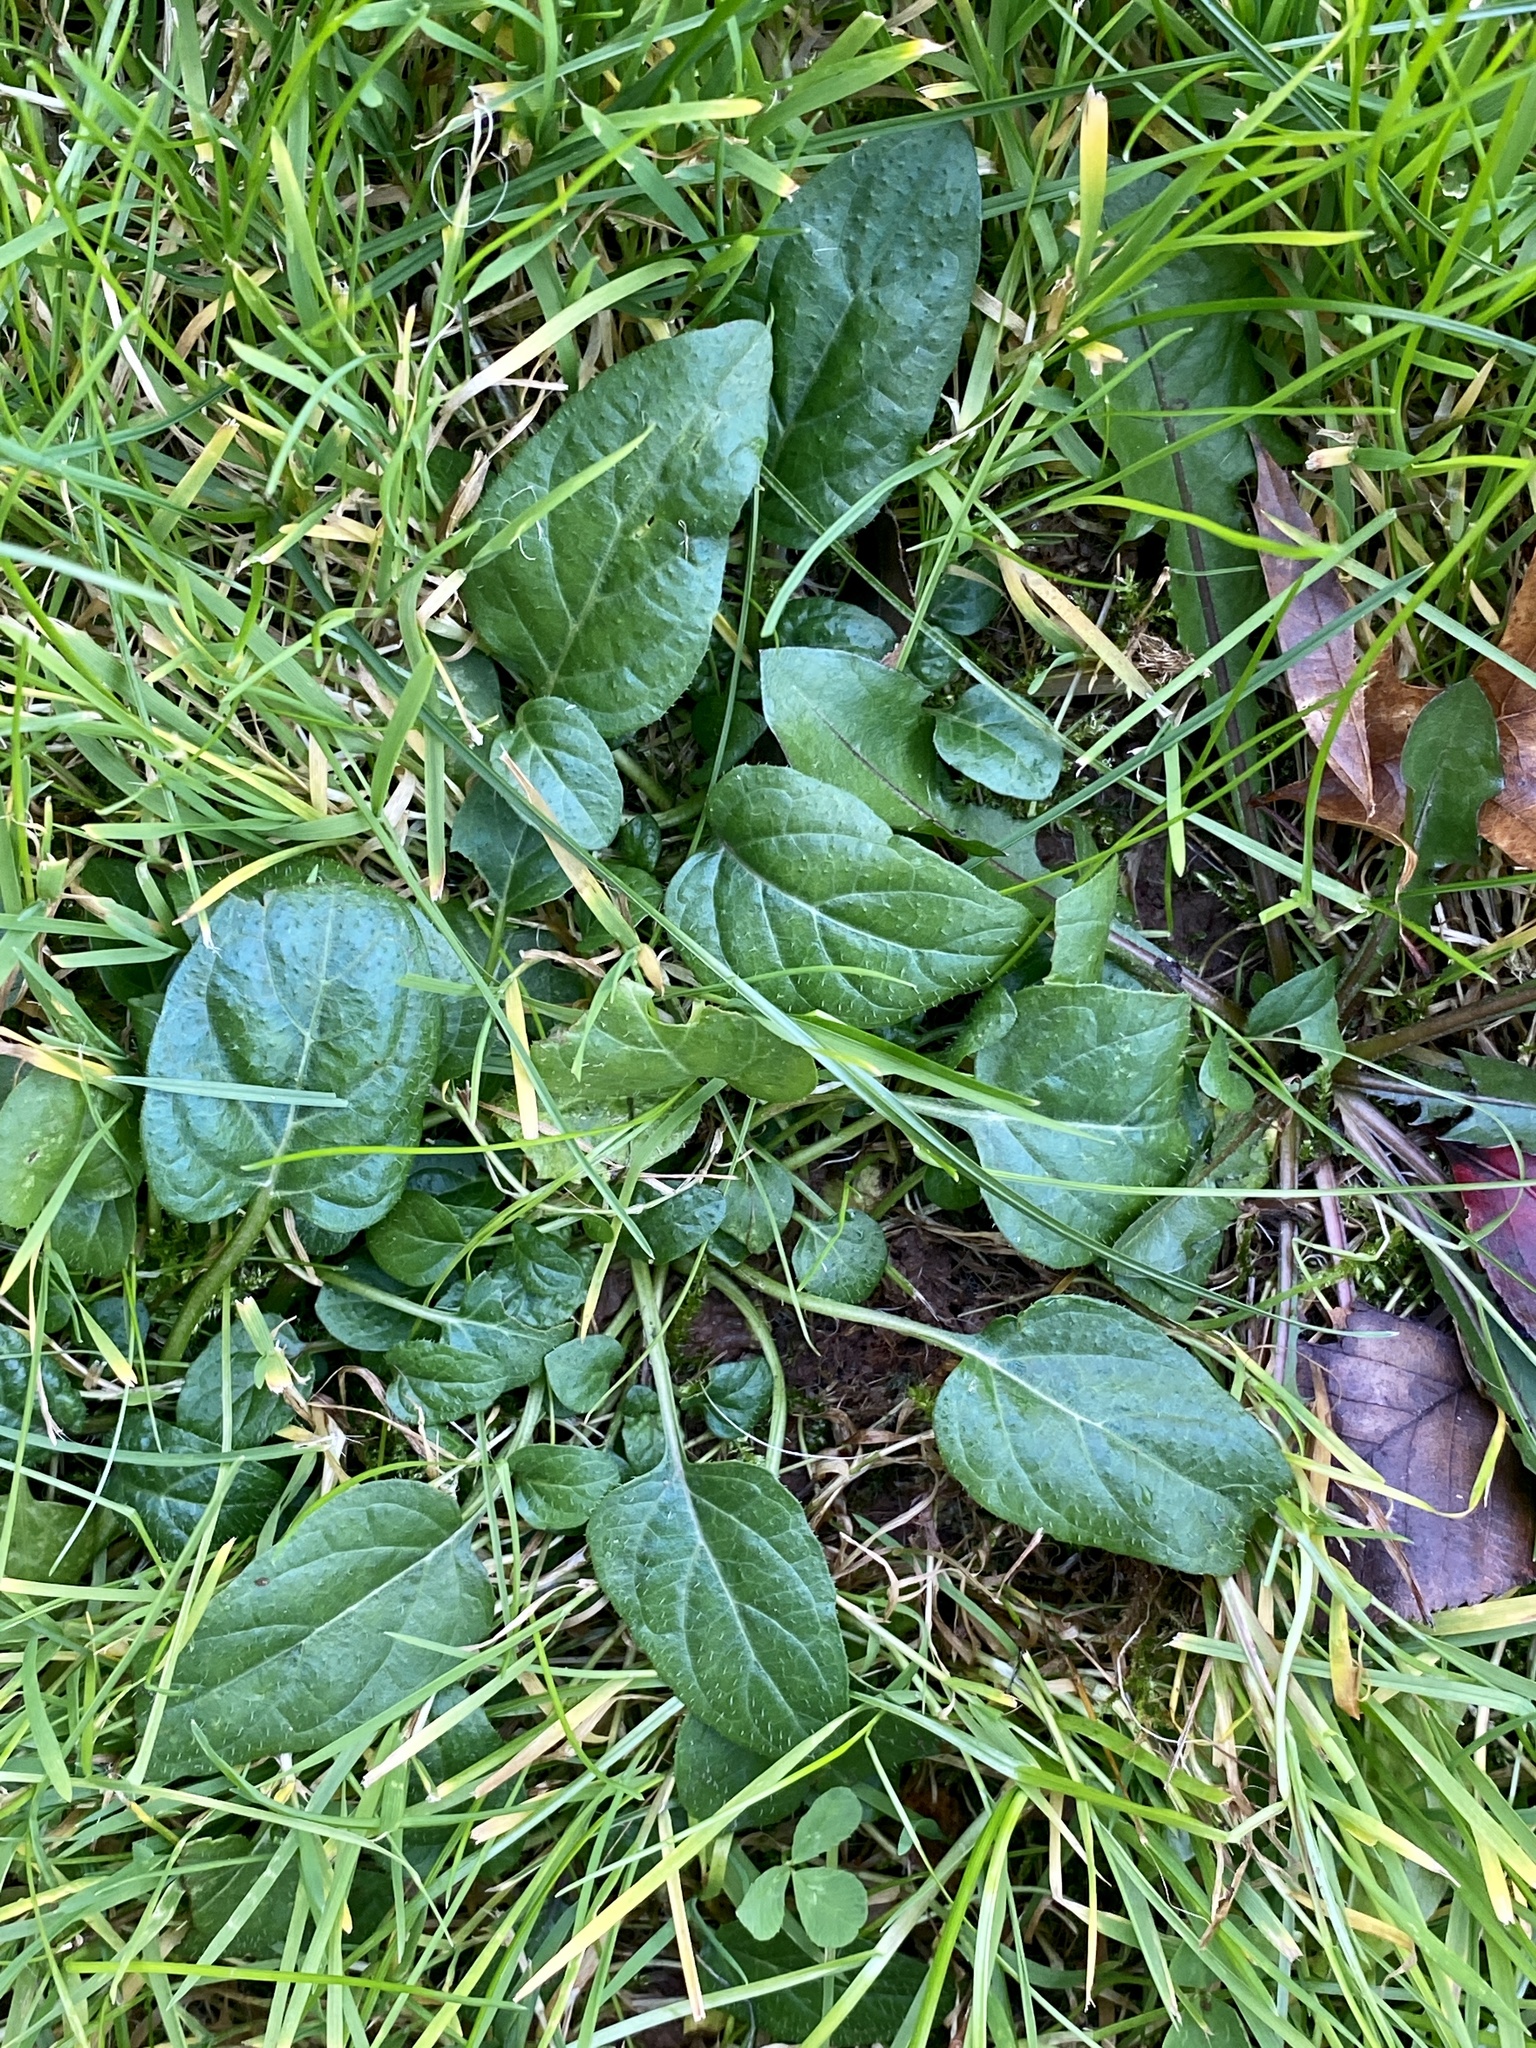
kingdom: Plantae
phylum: Tracheophyta
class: Magnoliopsida
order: Lamiales
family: Lamiaceae
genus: Prunella
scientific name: Prunella vulgaris
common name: Heal-all
